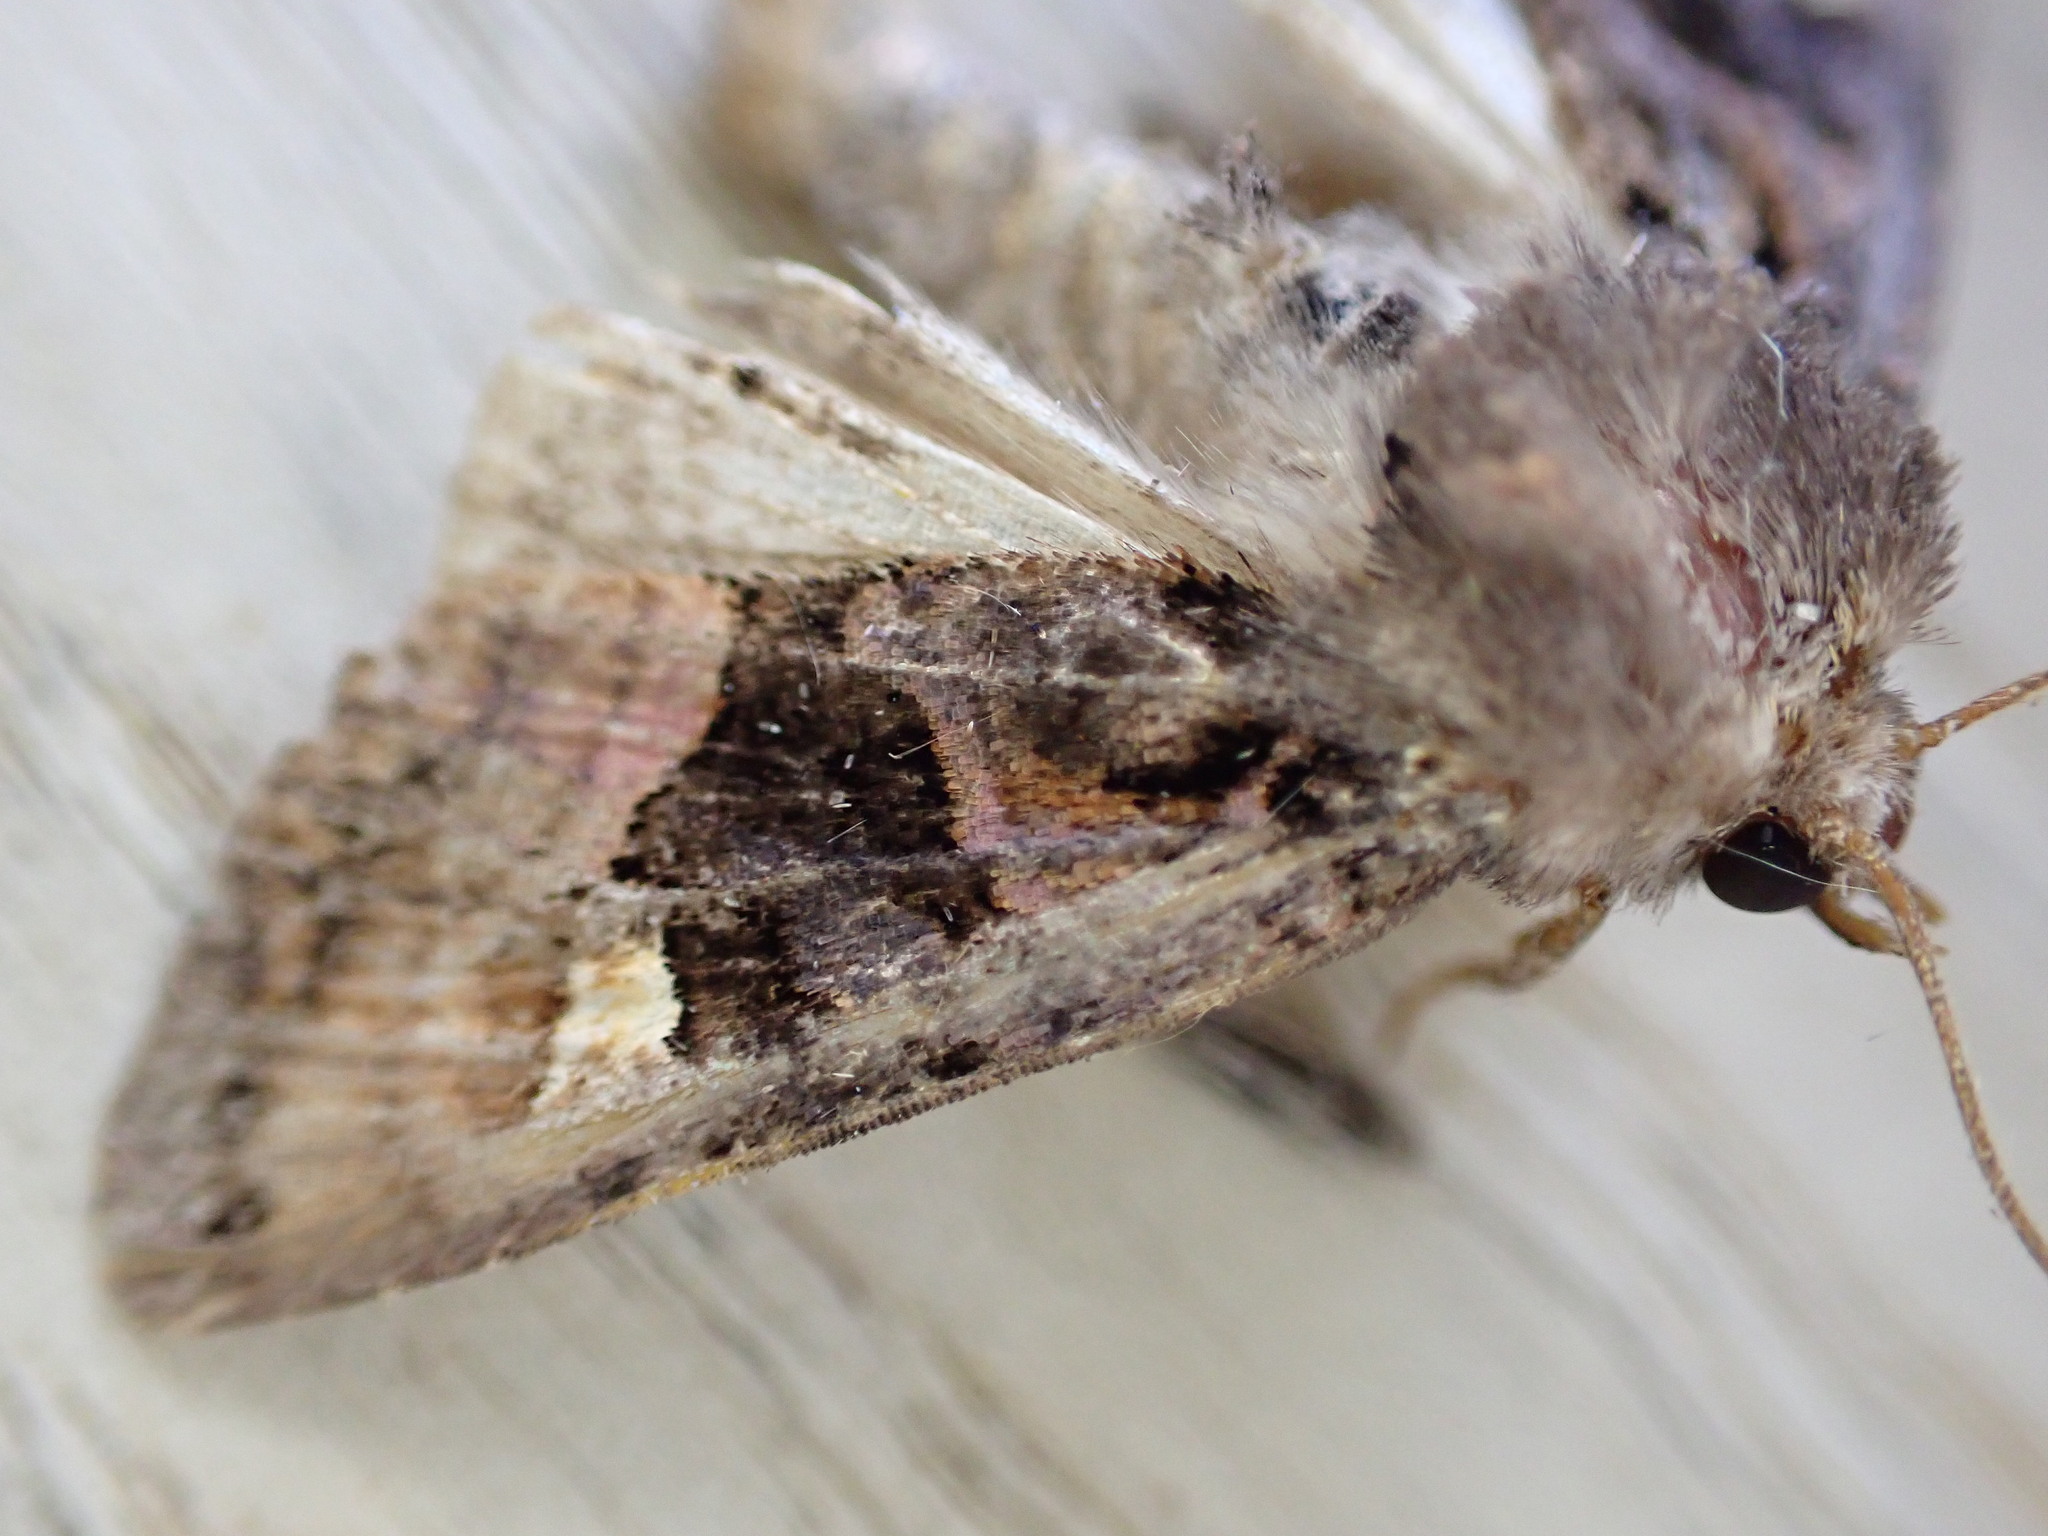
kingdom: Animalia
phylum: Arthropoda
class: Insecta
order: Lepidoptera
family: Noctuidae
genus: Euplexia
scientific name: Euplexia lucipara
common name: Small angle shades
